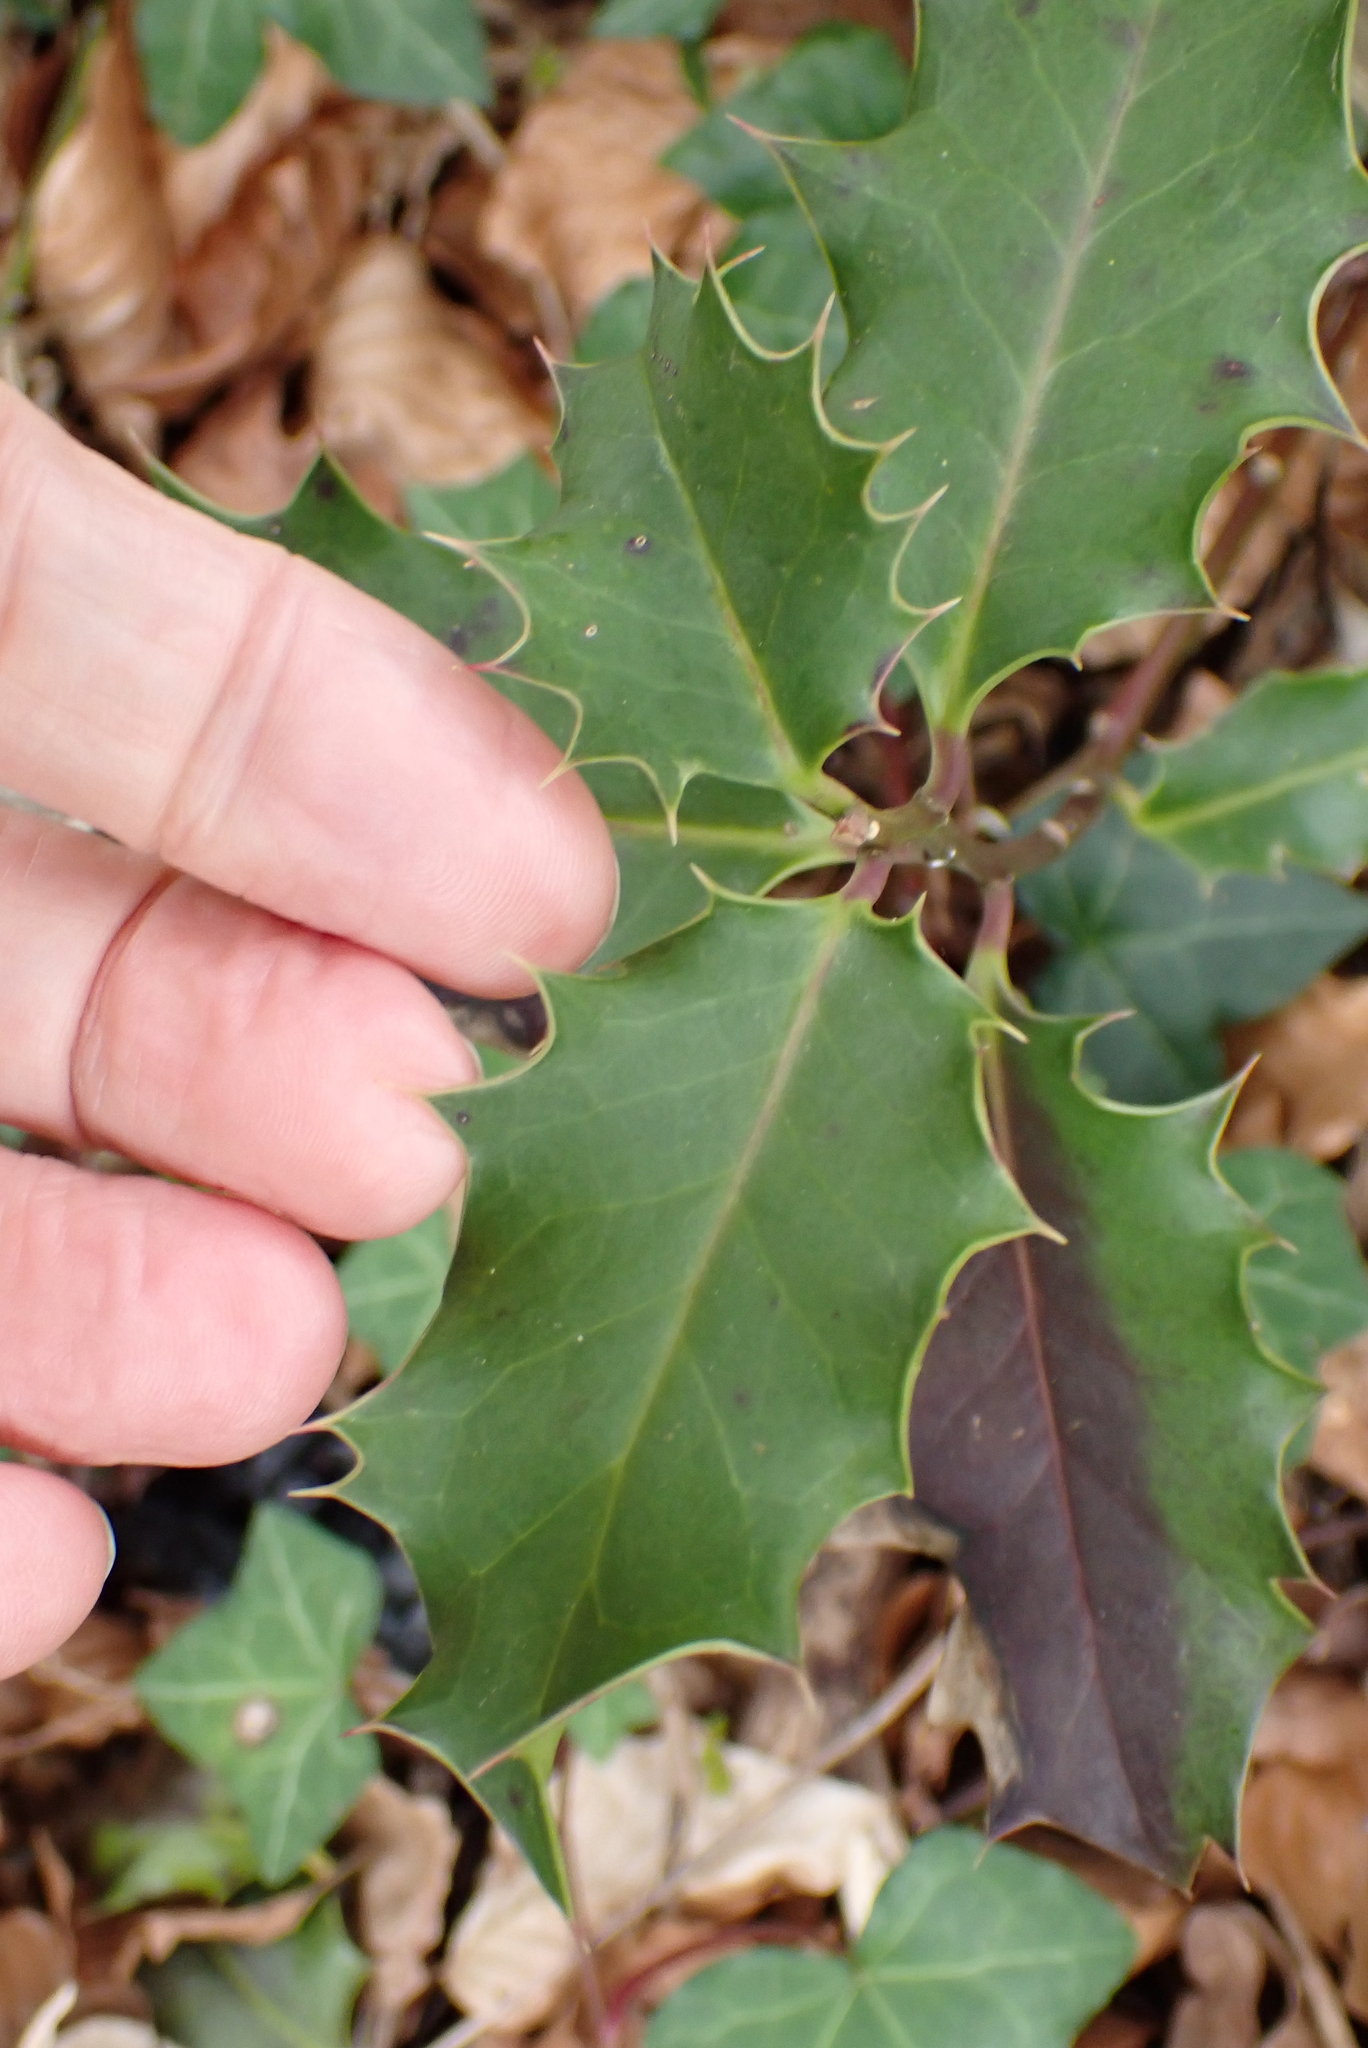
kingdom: Plantae
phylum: Tracheophyta
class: Magnoliopsida
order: Aquifoliales
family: Aquifoliaceae
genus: Ilex
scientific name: Ilex aquifolium
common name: English holly
